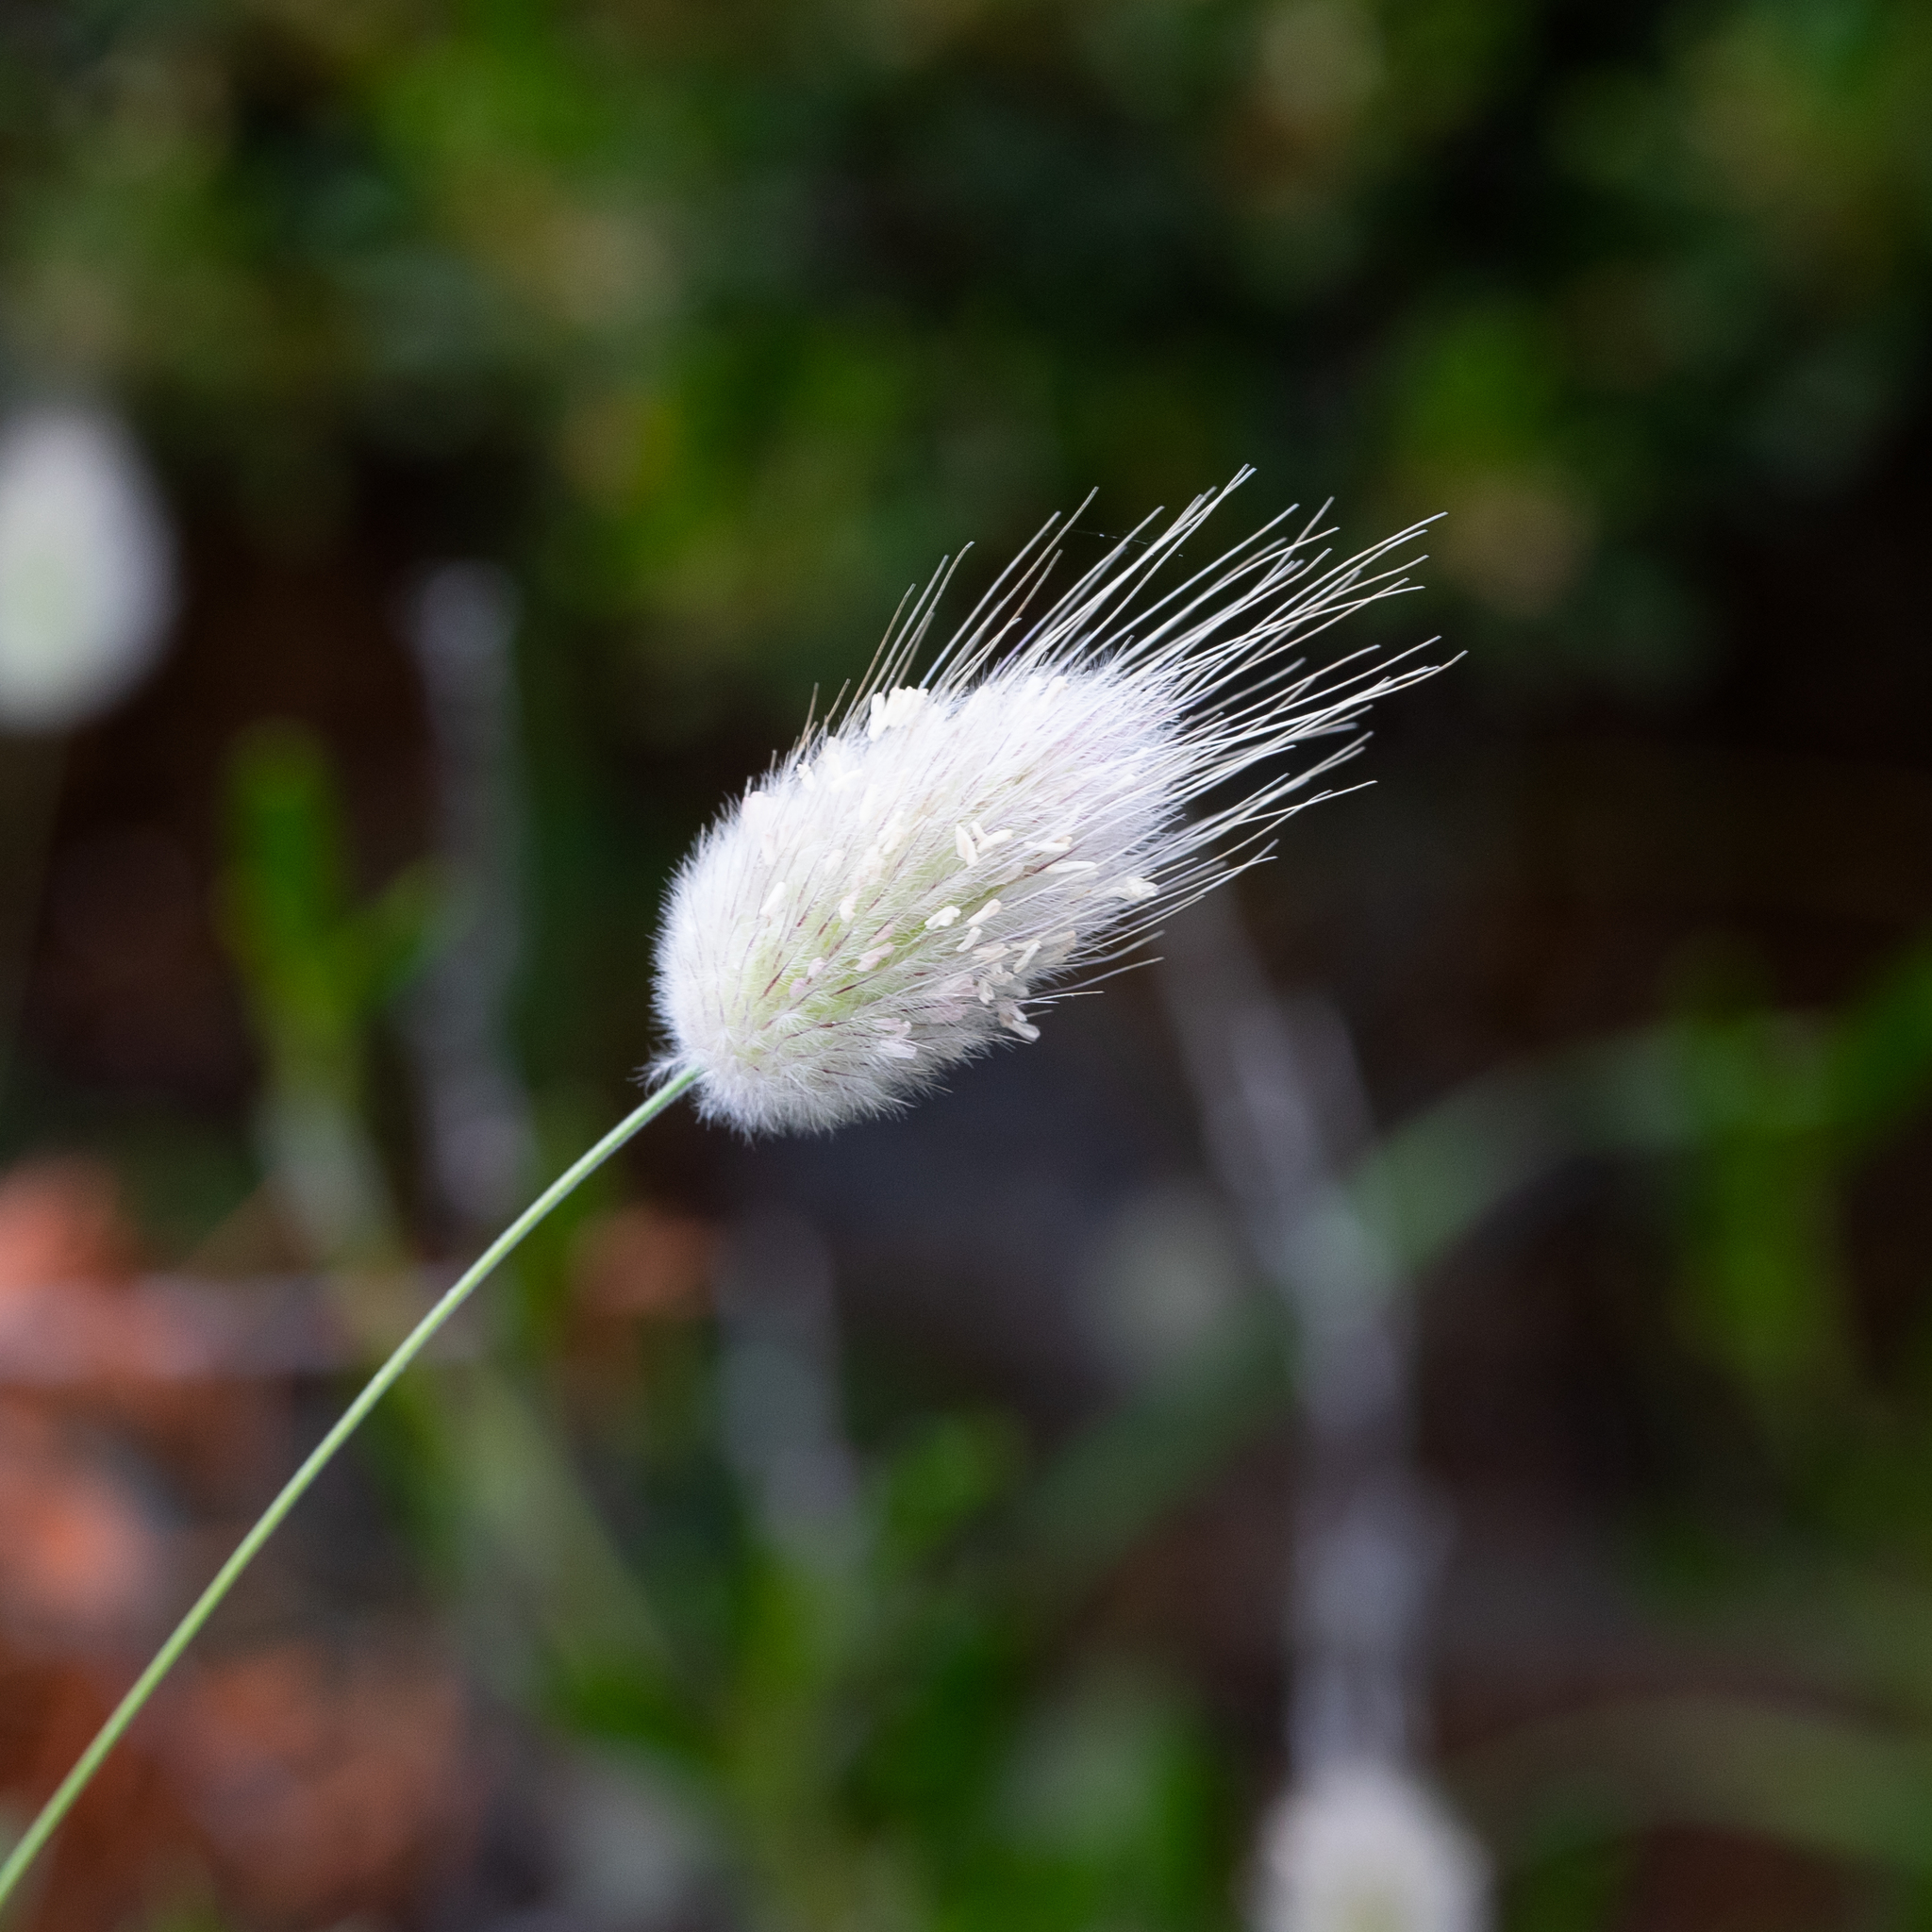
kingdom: Plantae
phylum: Tracheophyta
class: Liliopsida
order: Poales
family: Poaceae
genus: Lagurus
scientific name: Lagurus ovatus
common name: Hare's-tail
